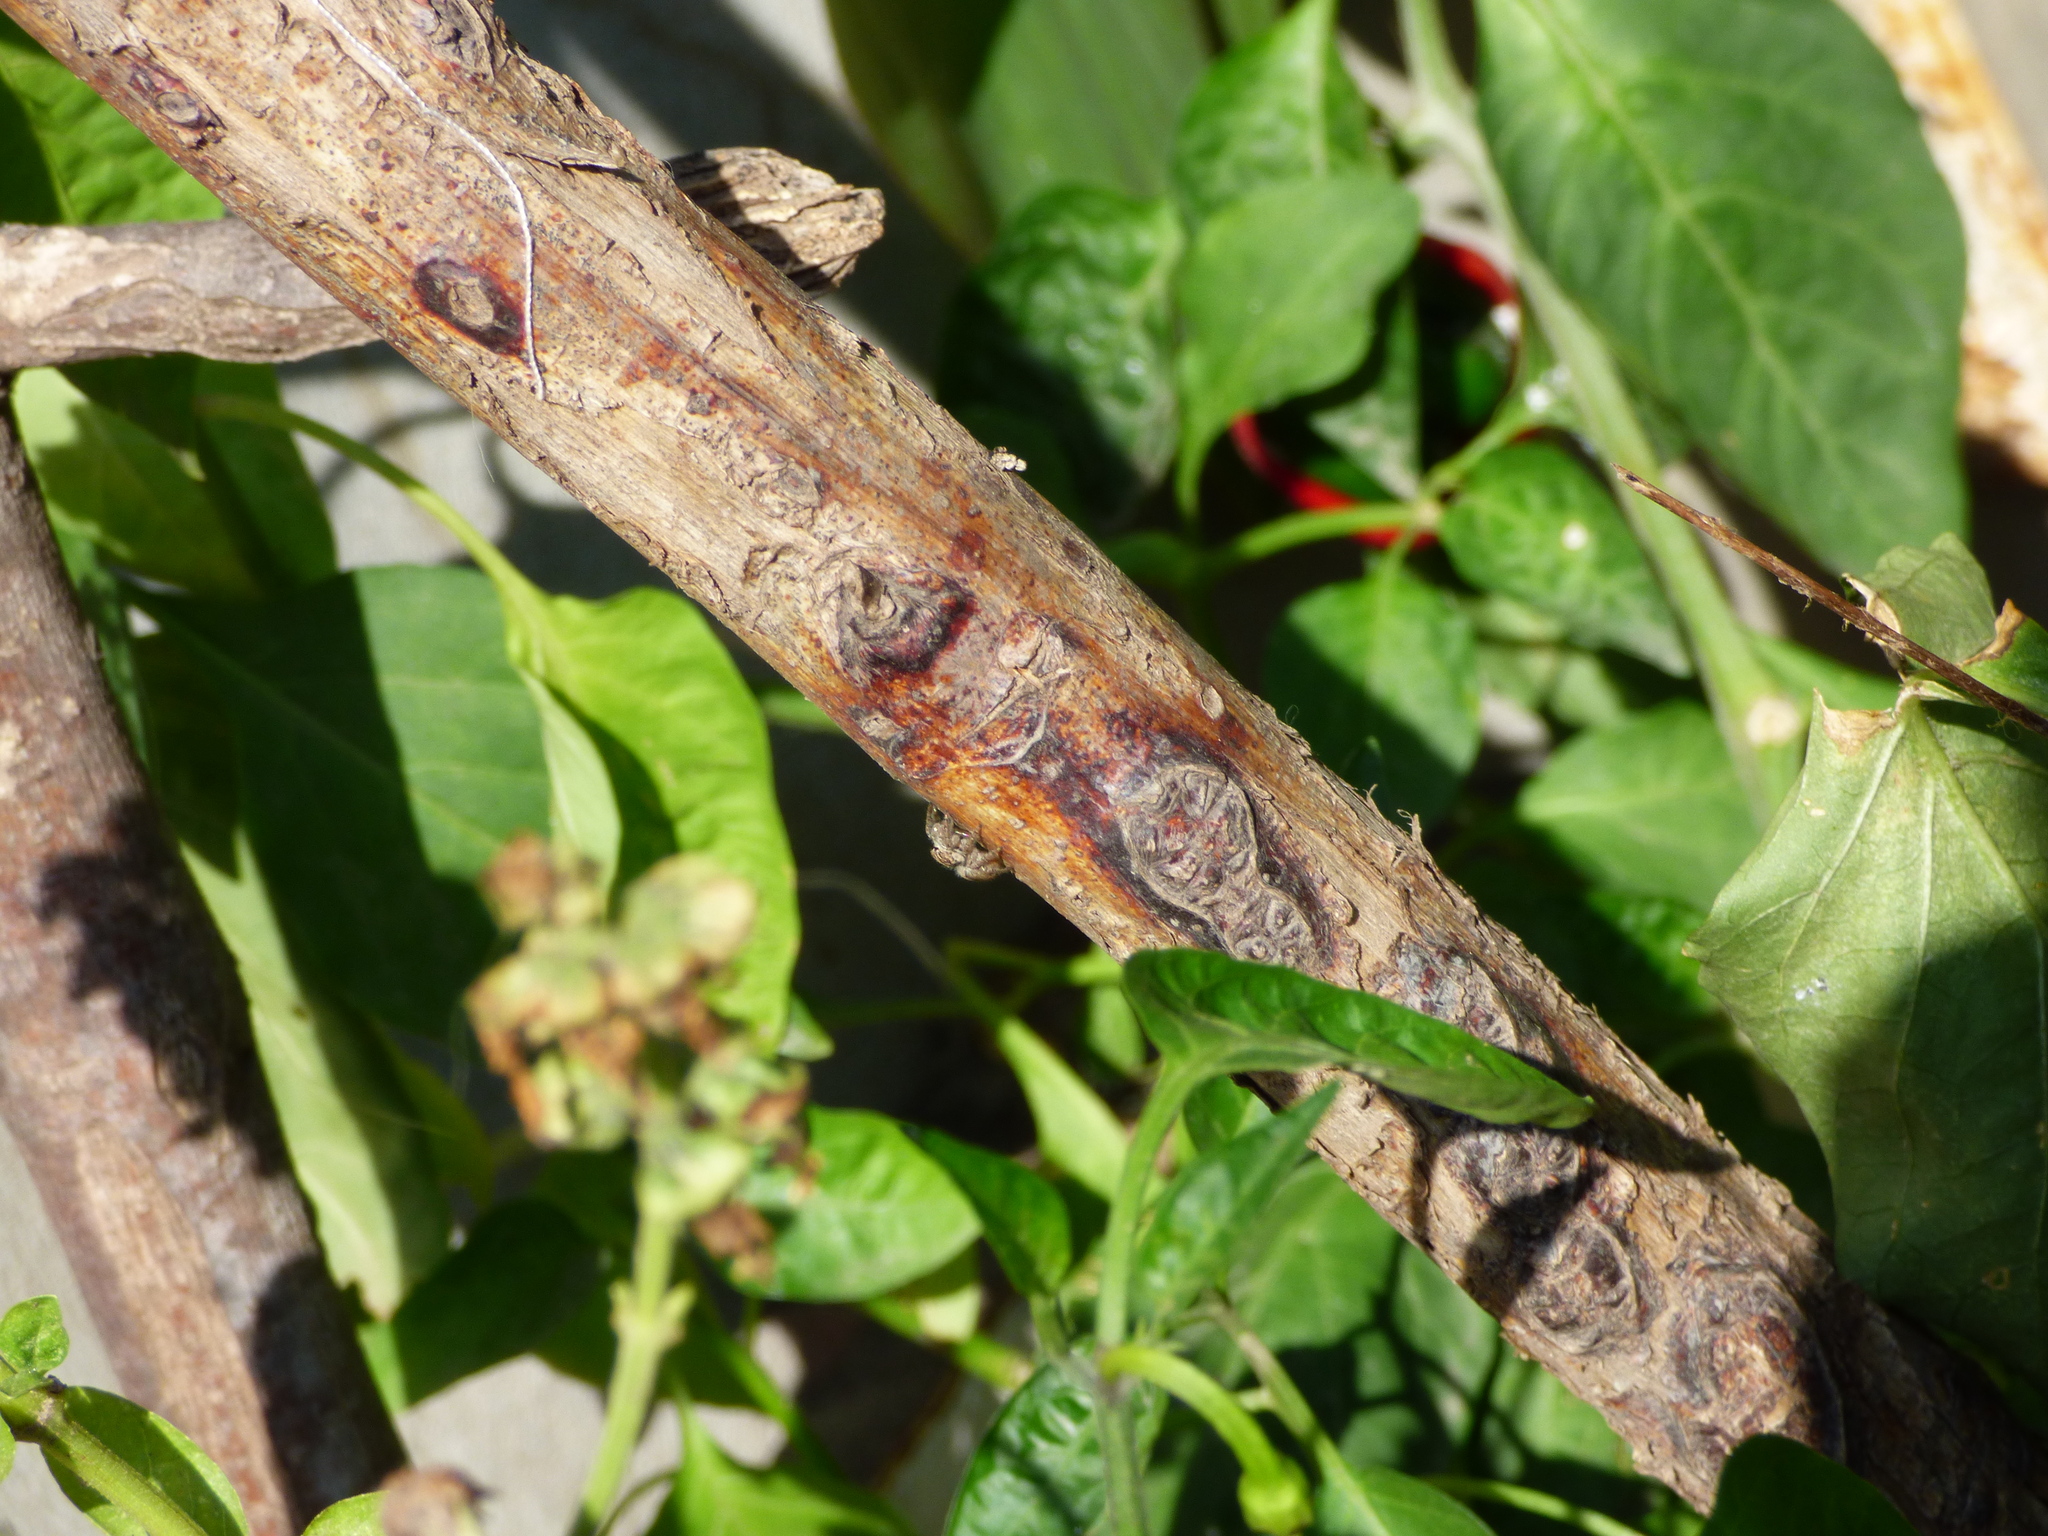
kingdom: Animalia
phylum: Arthropoda
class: Arachnida
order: Araneae
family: Salticidae
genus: Megafreya
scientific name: Megafreya sutrix
